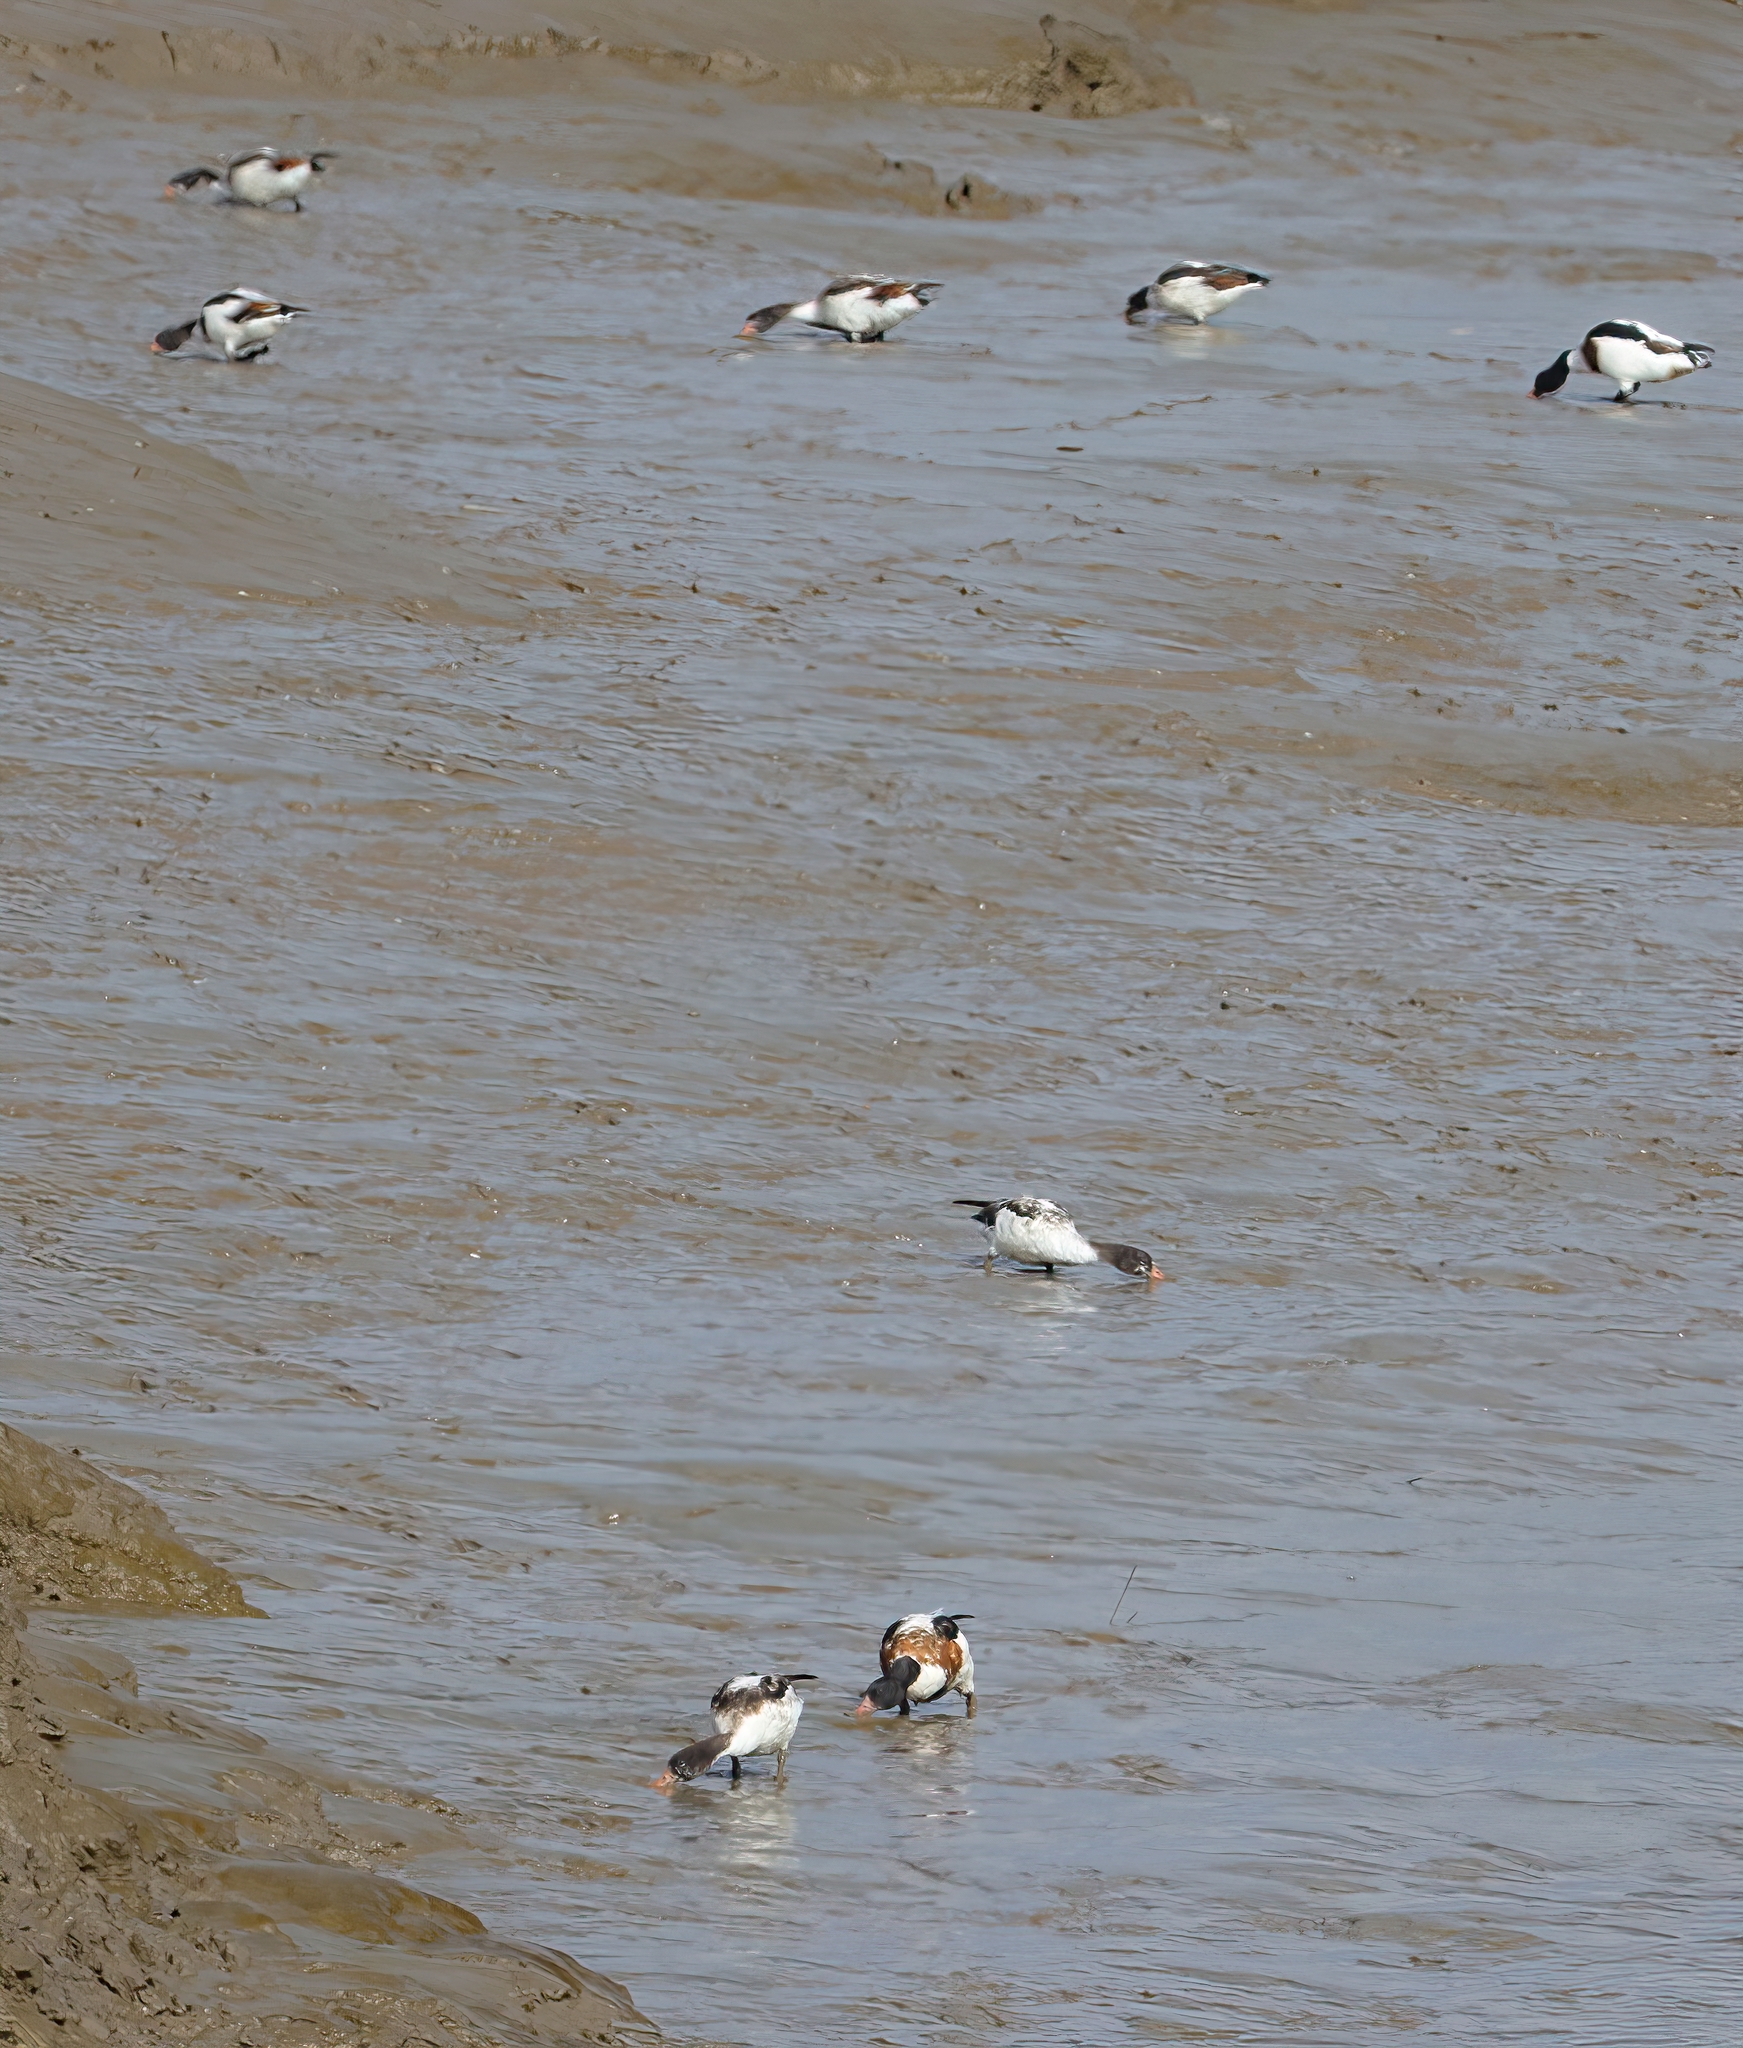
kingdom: Animalia
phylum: Chordata
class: Aves
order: Anseriformes
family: Anatidae
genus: Tadorna
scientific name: Tadorna tadorna
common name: Common shelduck
